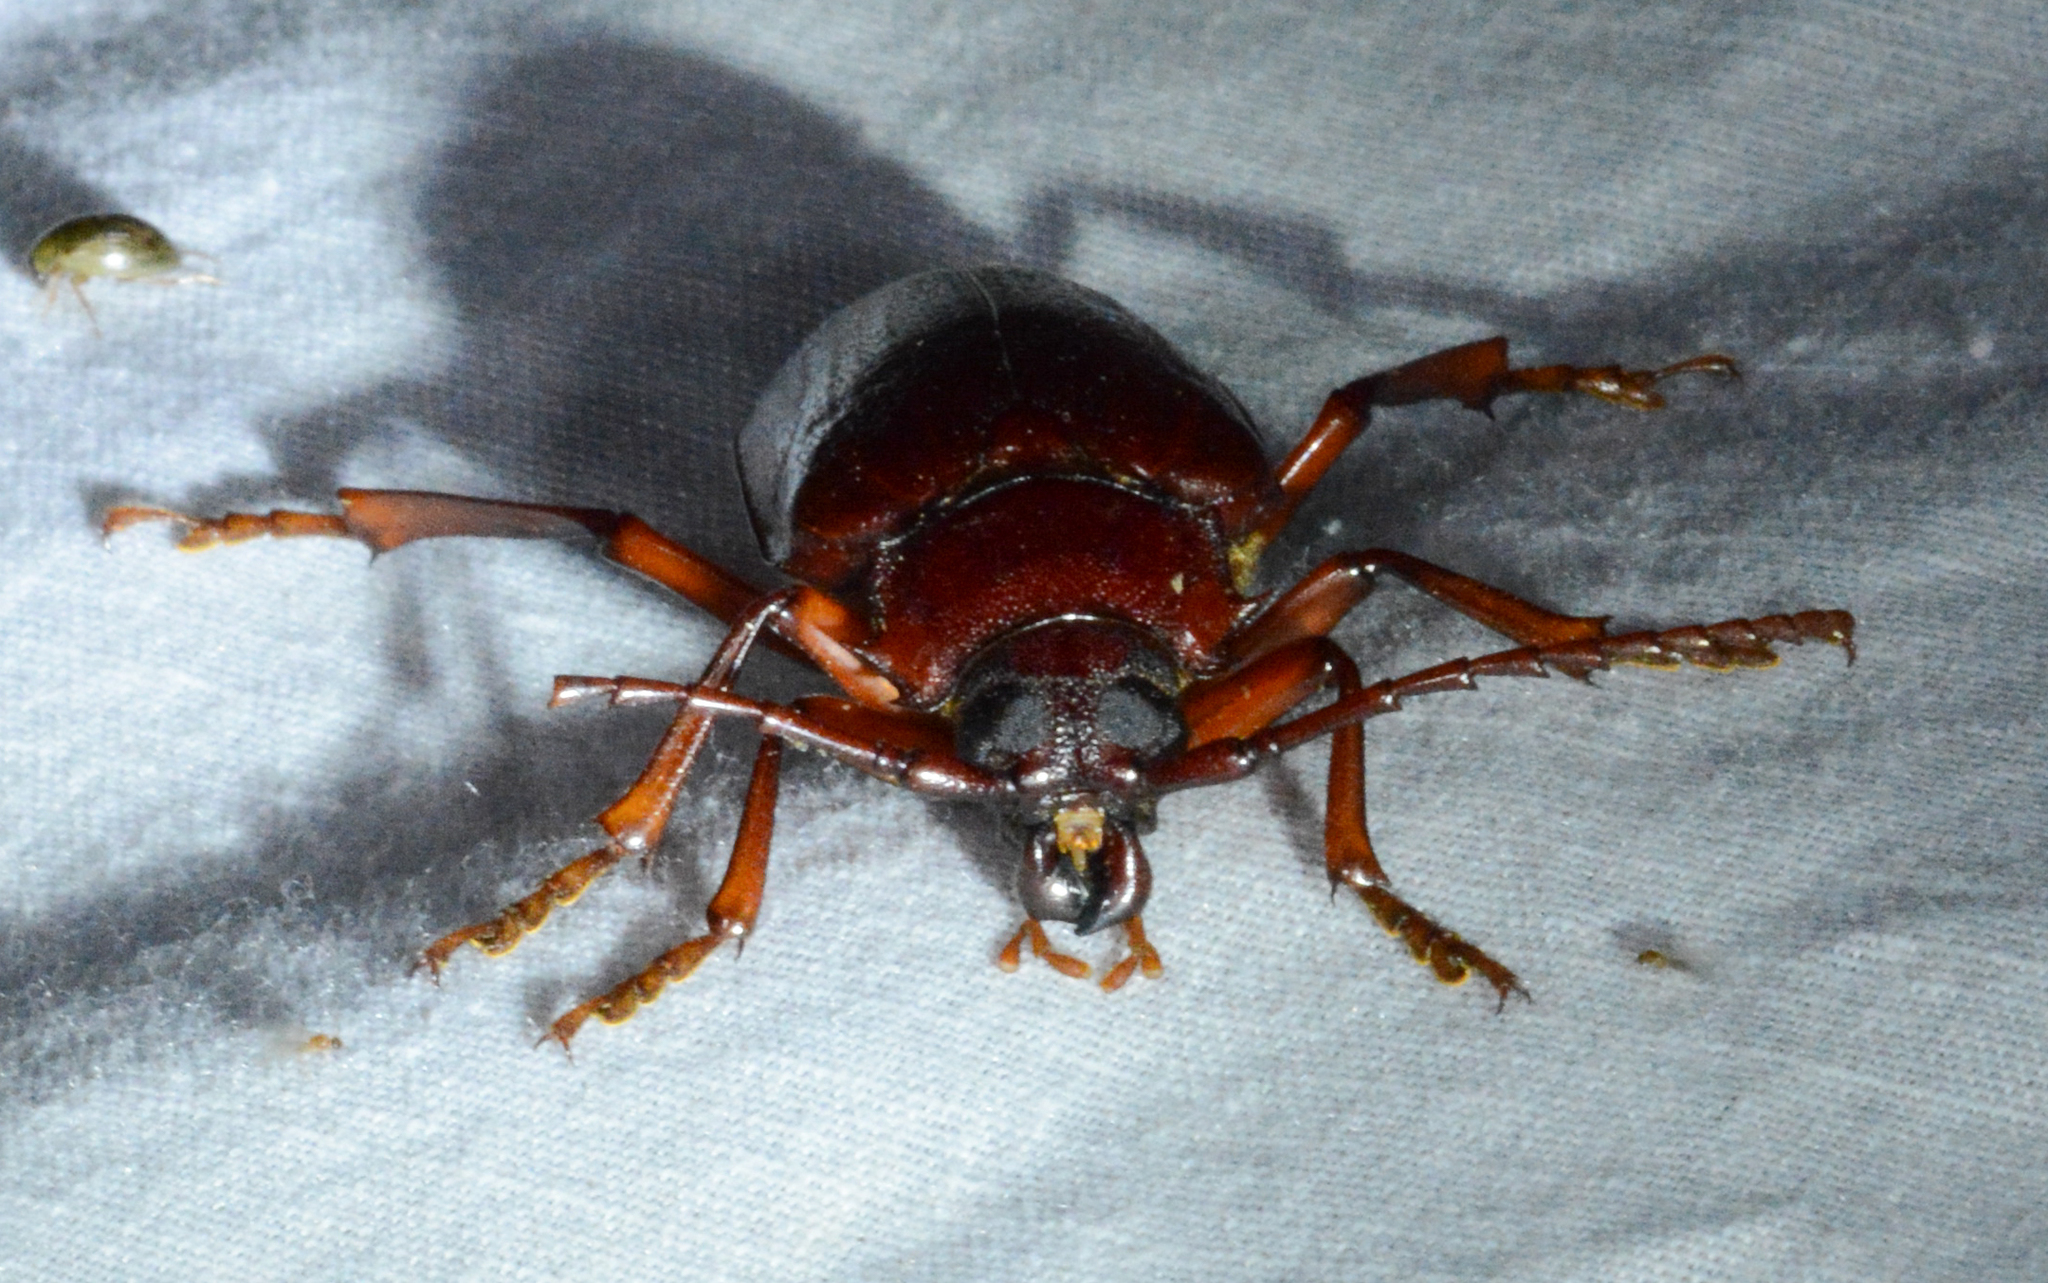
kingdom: Animalia
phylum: Arthropoda
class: Insecta
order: Coleoptera
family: Cerambycidae
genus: Prionus
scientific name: Prionus pocularis
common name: Tooth-necked longhorn beetle
